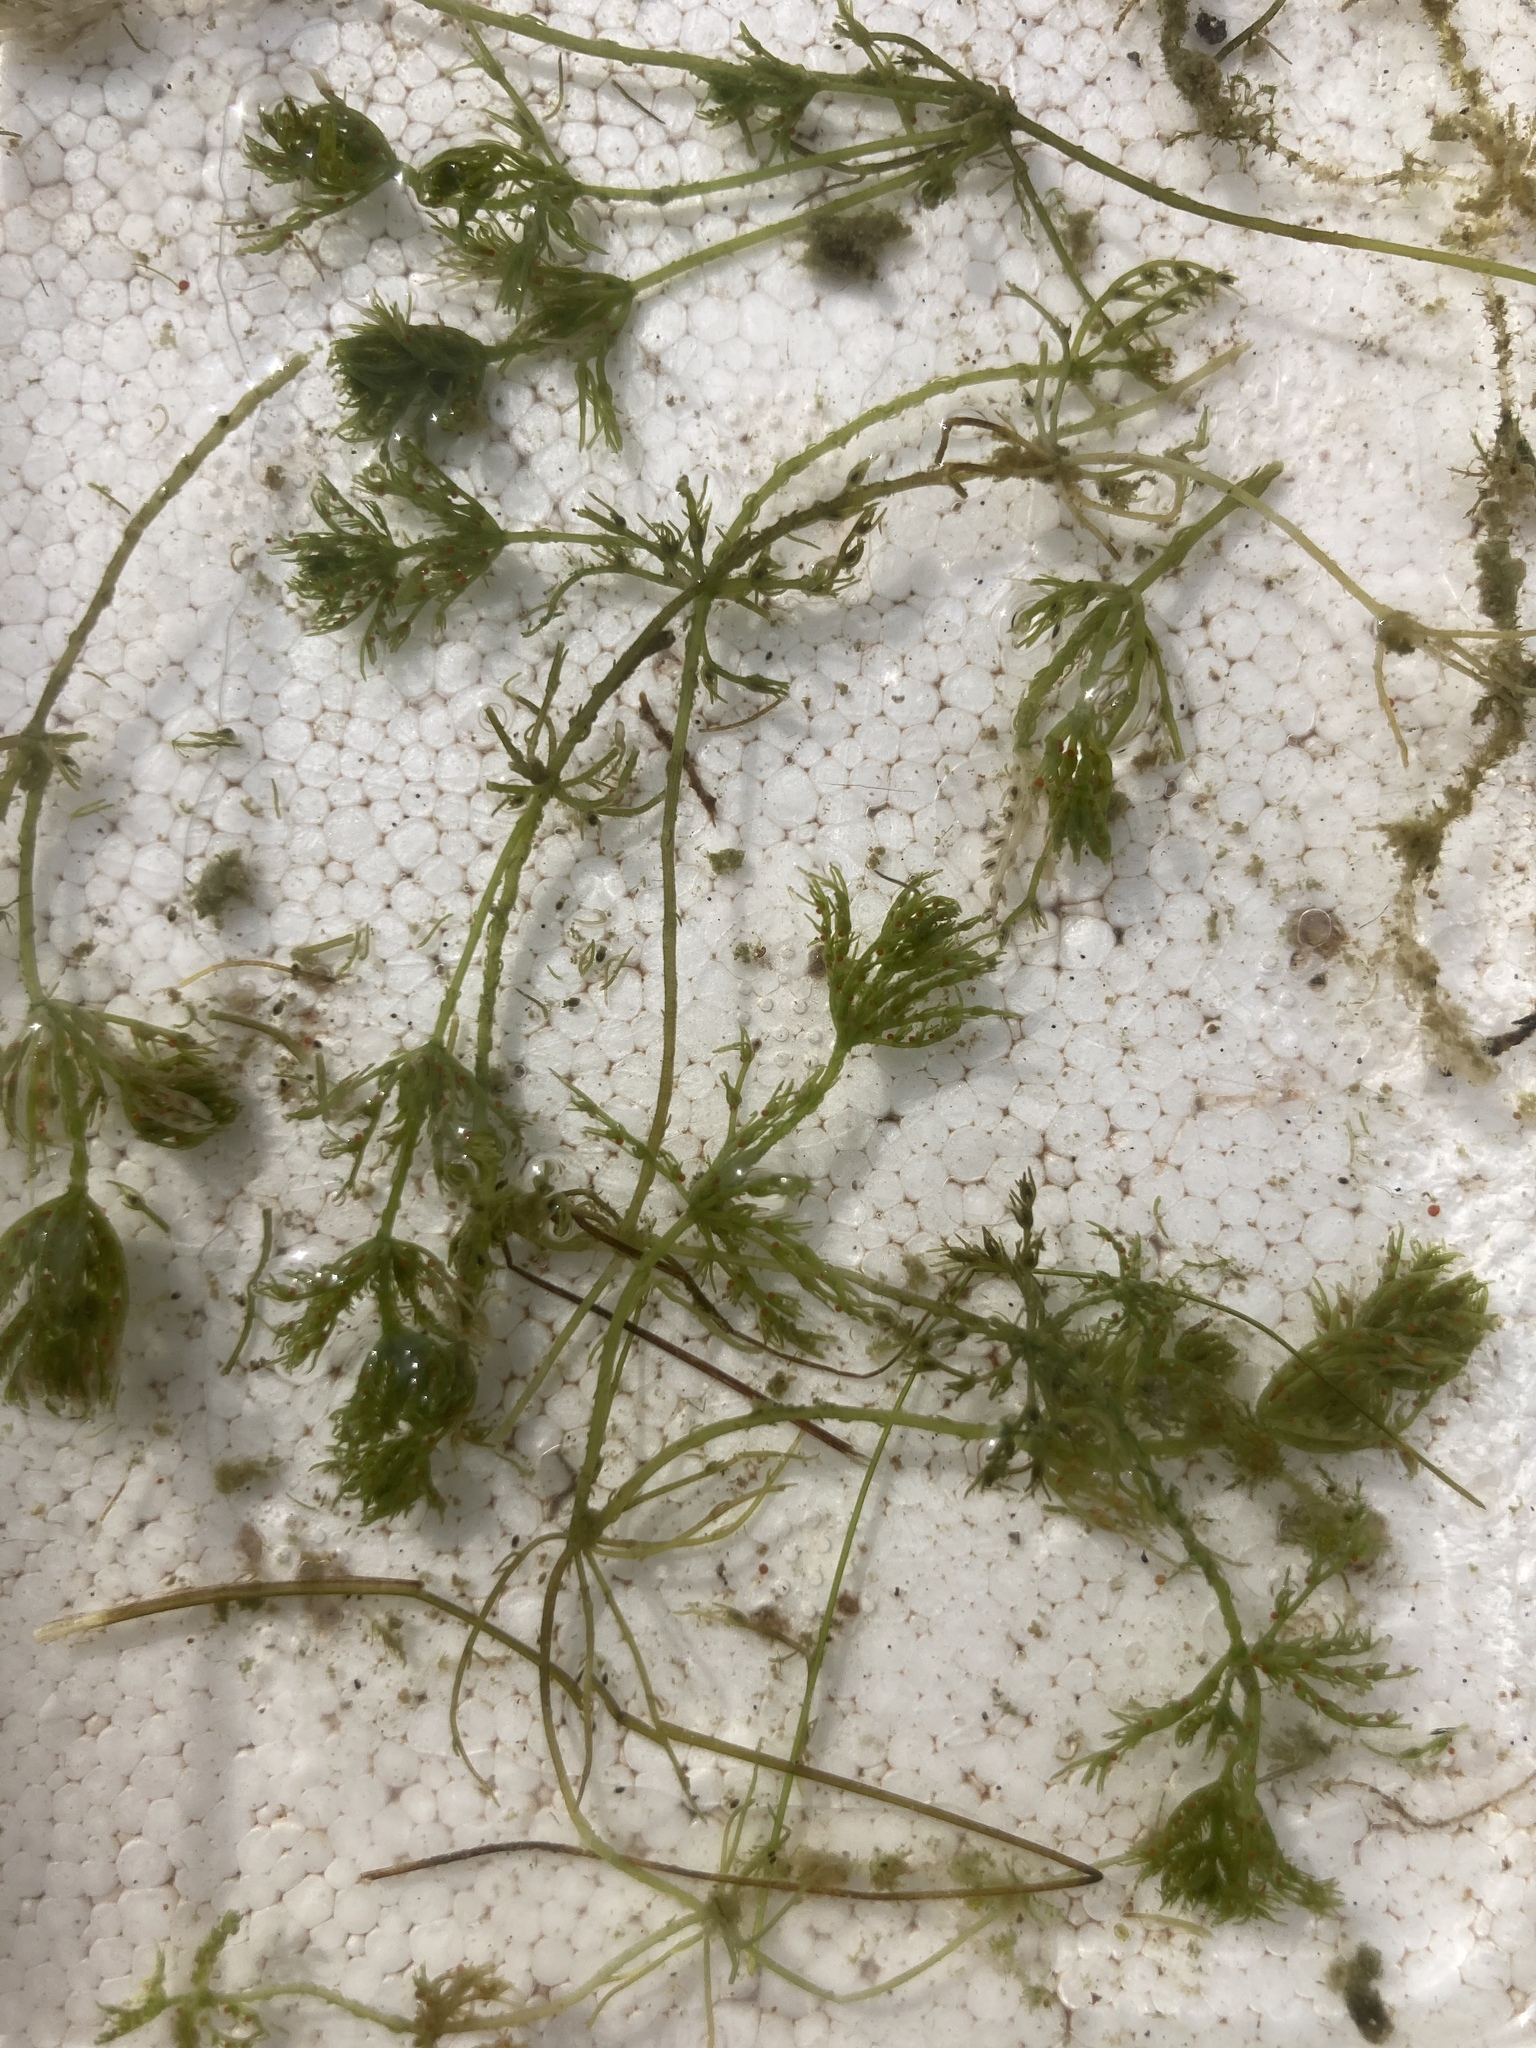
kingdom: Plantae
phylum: Charophyta
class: Charophyceae
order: Charales
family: Characeae
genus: Chara
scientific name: Chara vulgaris
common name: Common stonewort
